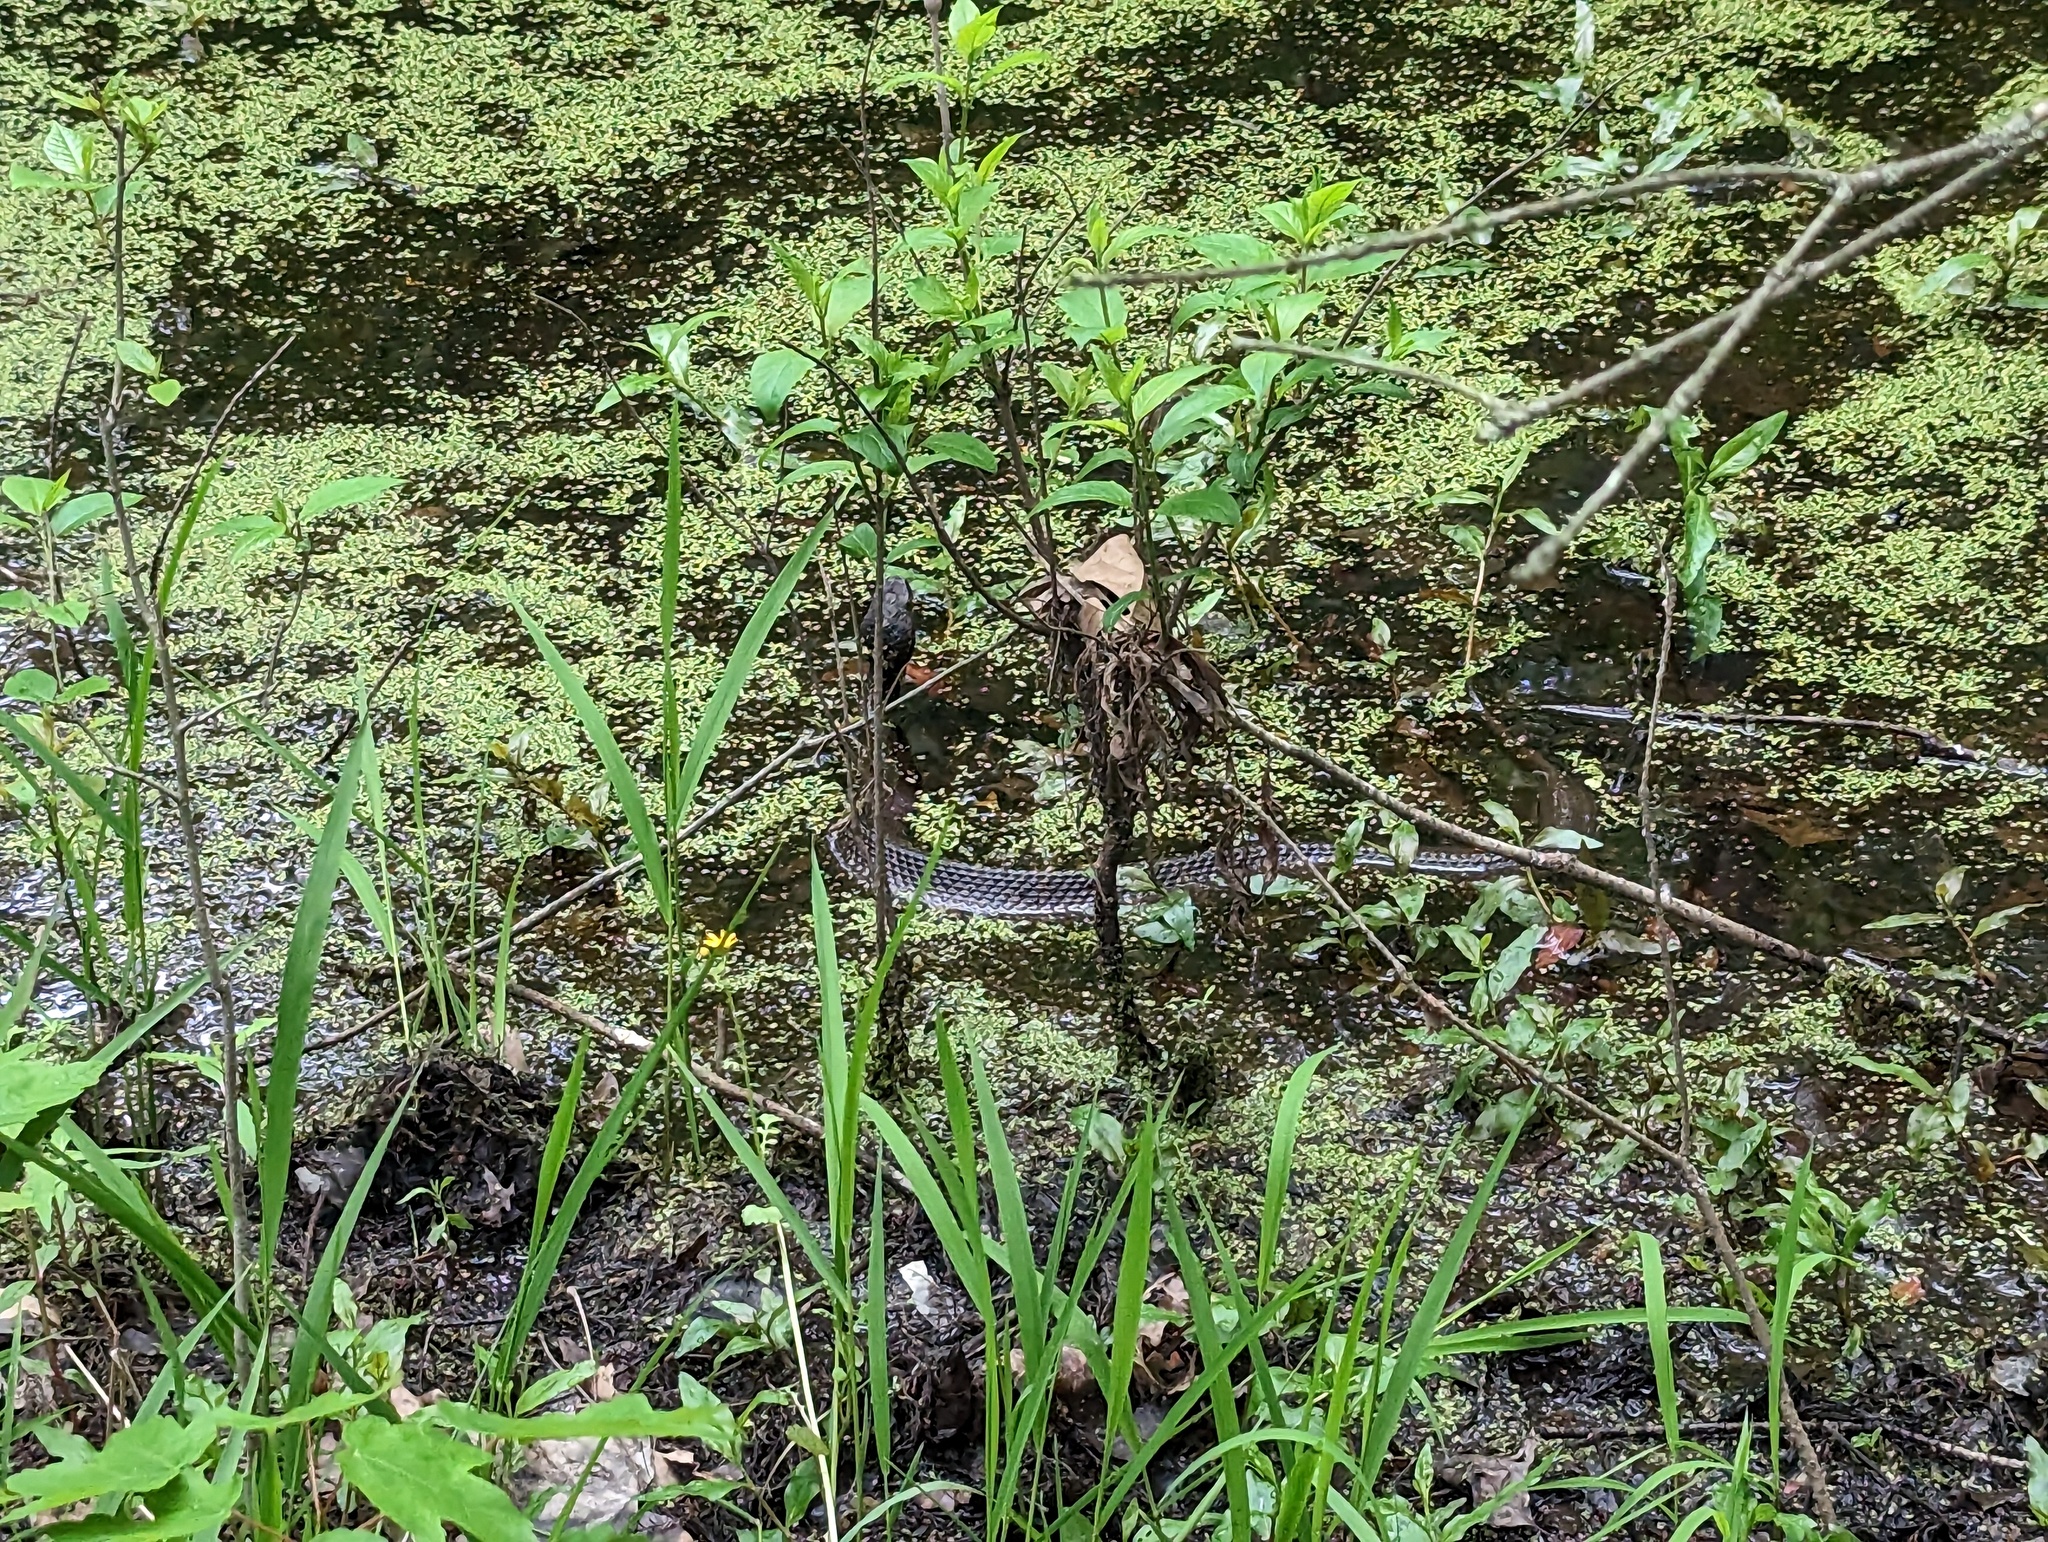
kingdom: Animalia
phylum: Chordata
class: Squamata
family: Viperidae
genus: Agkistrodon
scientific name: Agkistrodon piscivorus
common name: Cottonmouth
